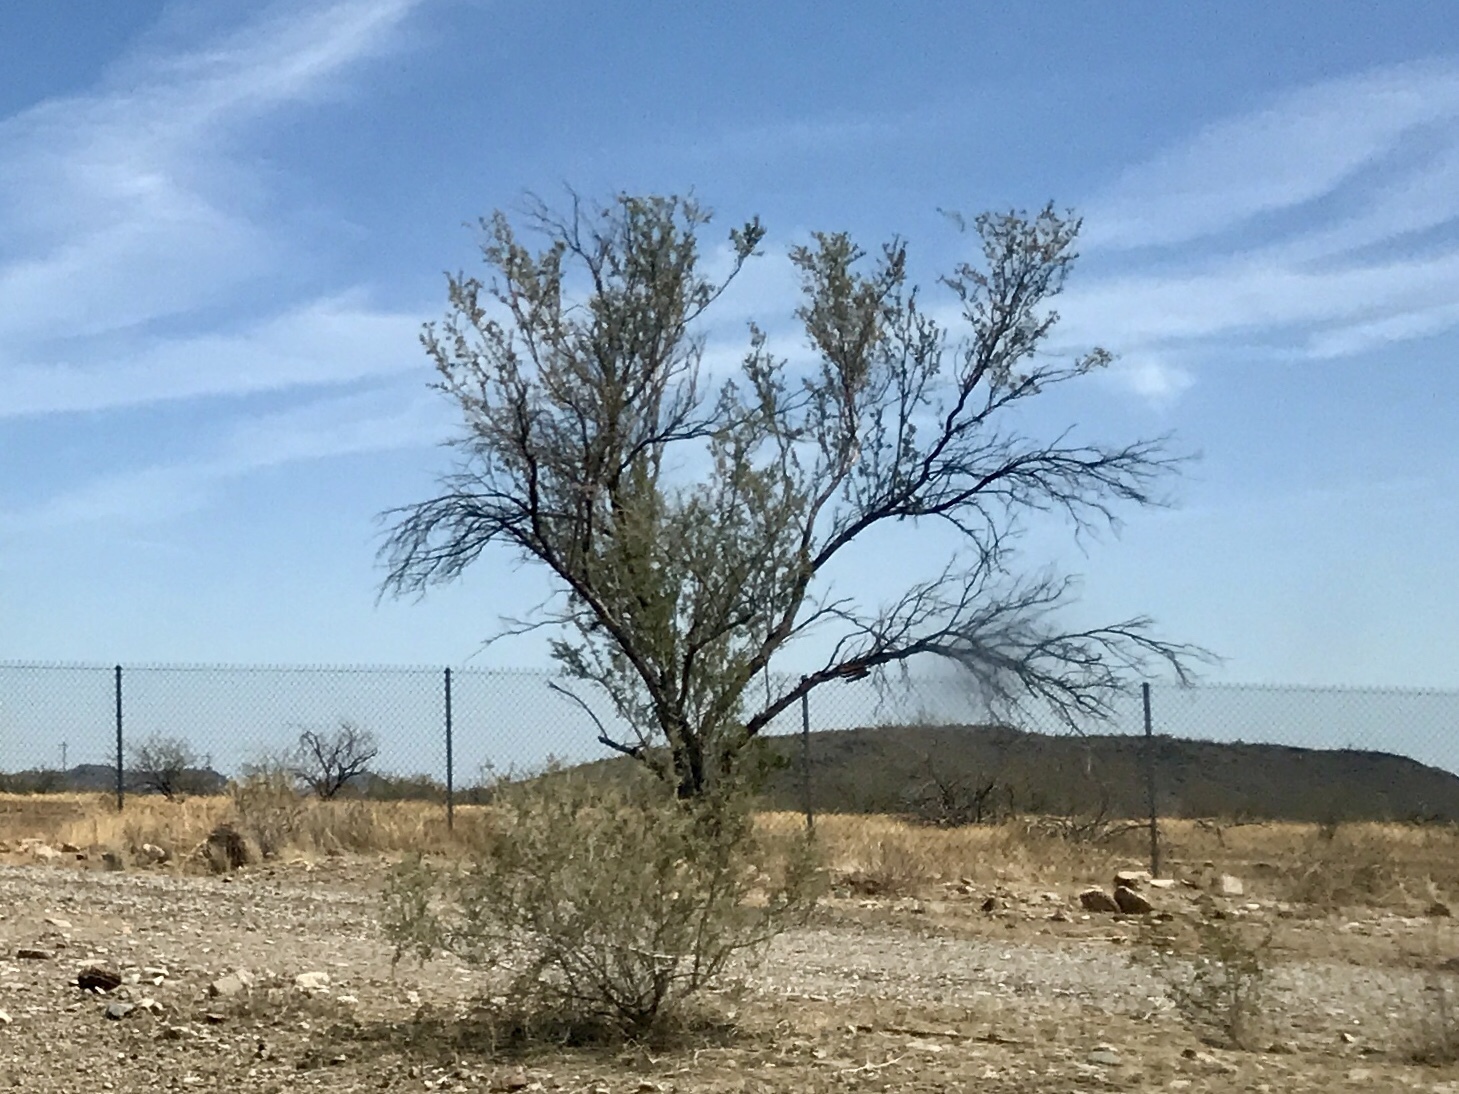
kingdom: Plantae
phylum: Tracheophyta
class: Magnoliopsida
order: Fabales
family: Fabaceae
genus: Olneya
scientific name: Olneya tesota
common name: Desert ironwood
